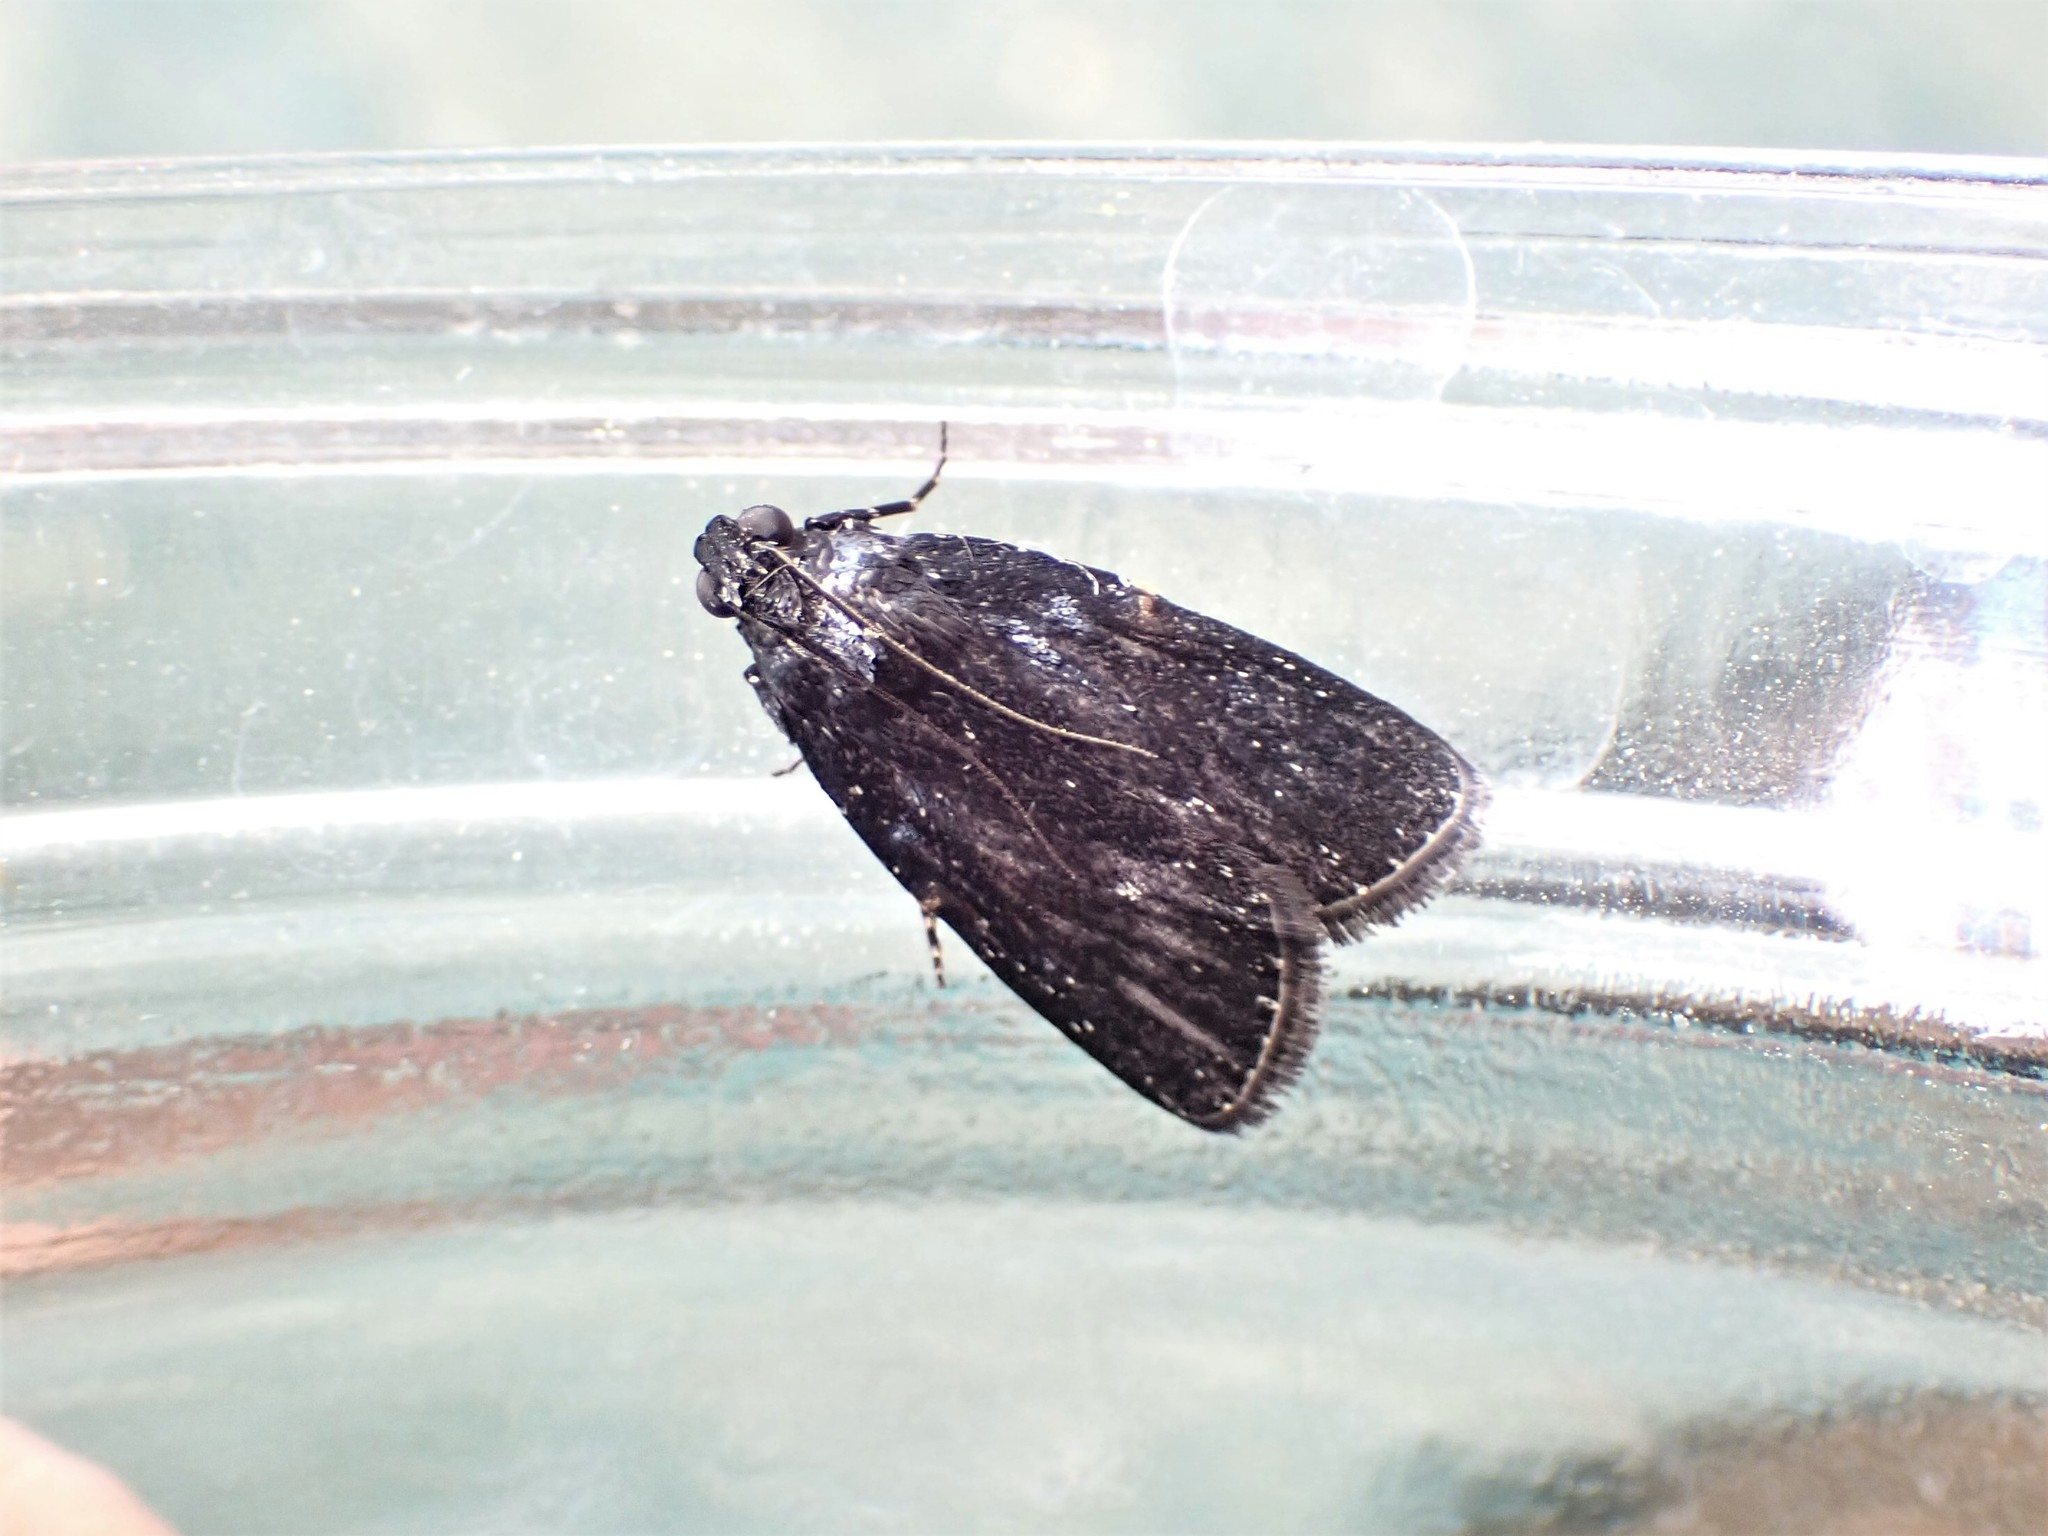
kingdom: Animalia
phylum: Arthropoda
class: Insecta
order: Lepidoptera
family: Pyralidae
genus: Stericta
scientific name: Stericta carbonalis
